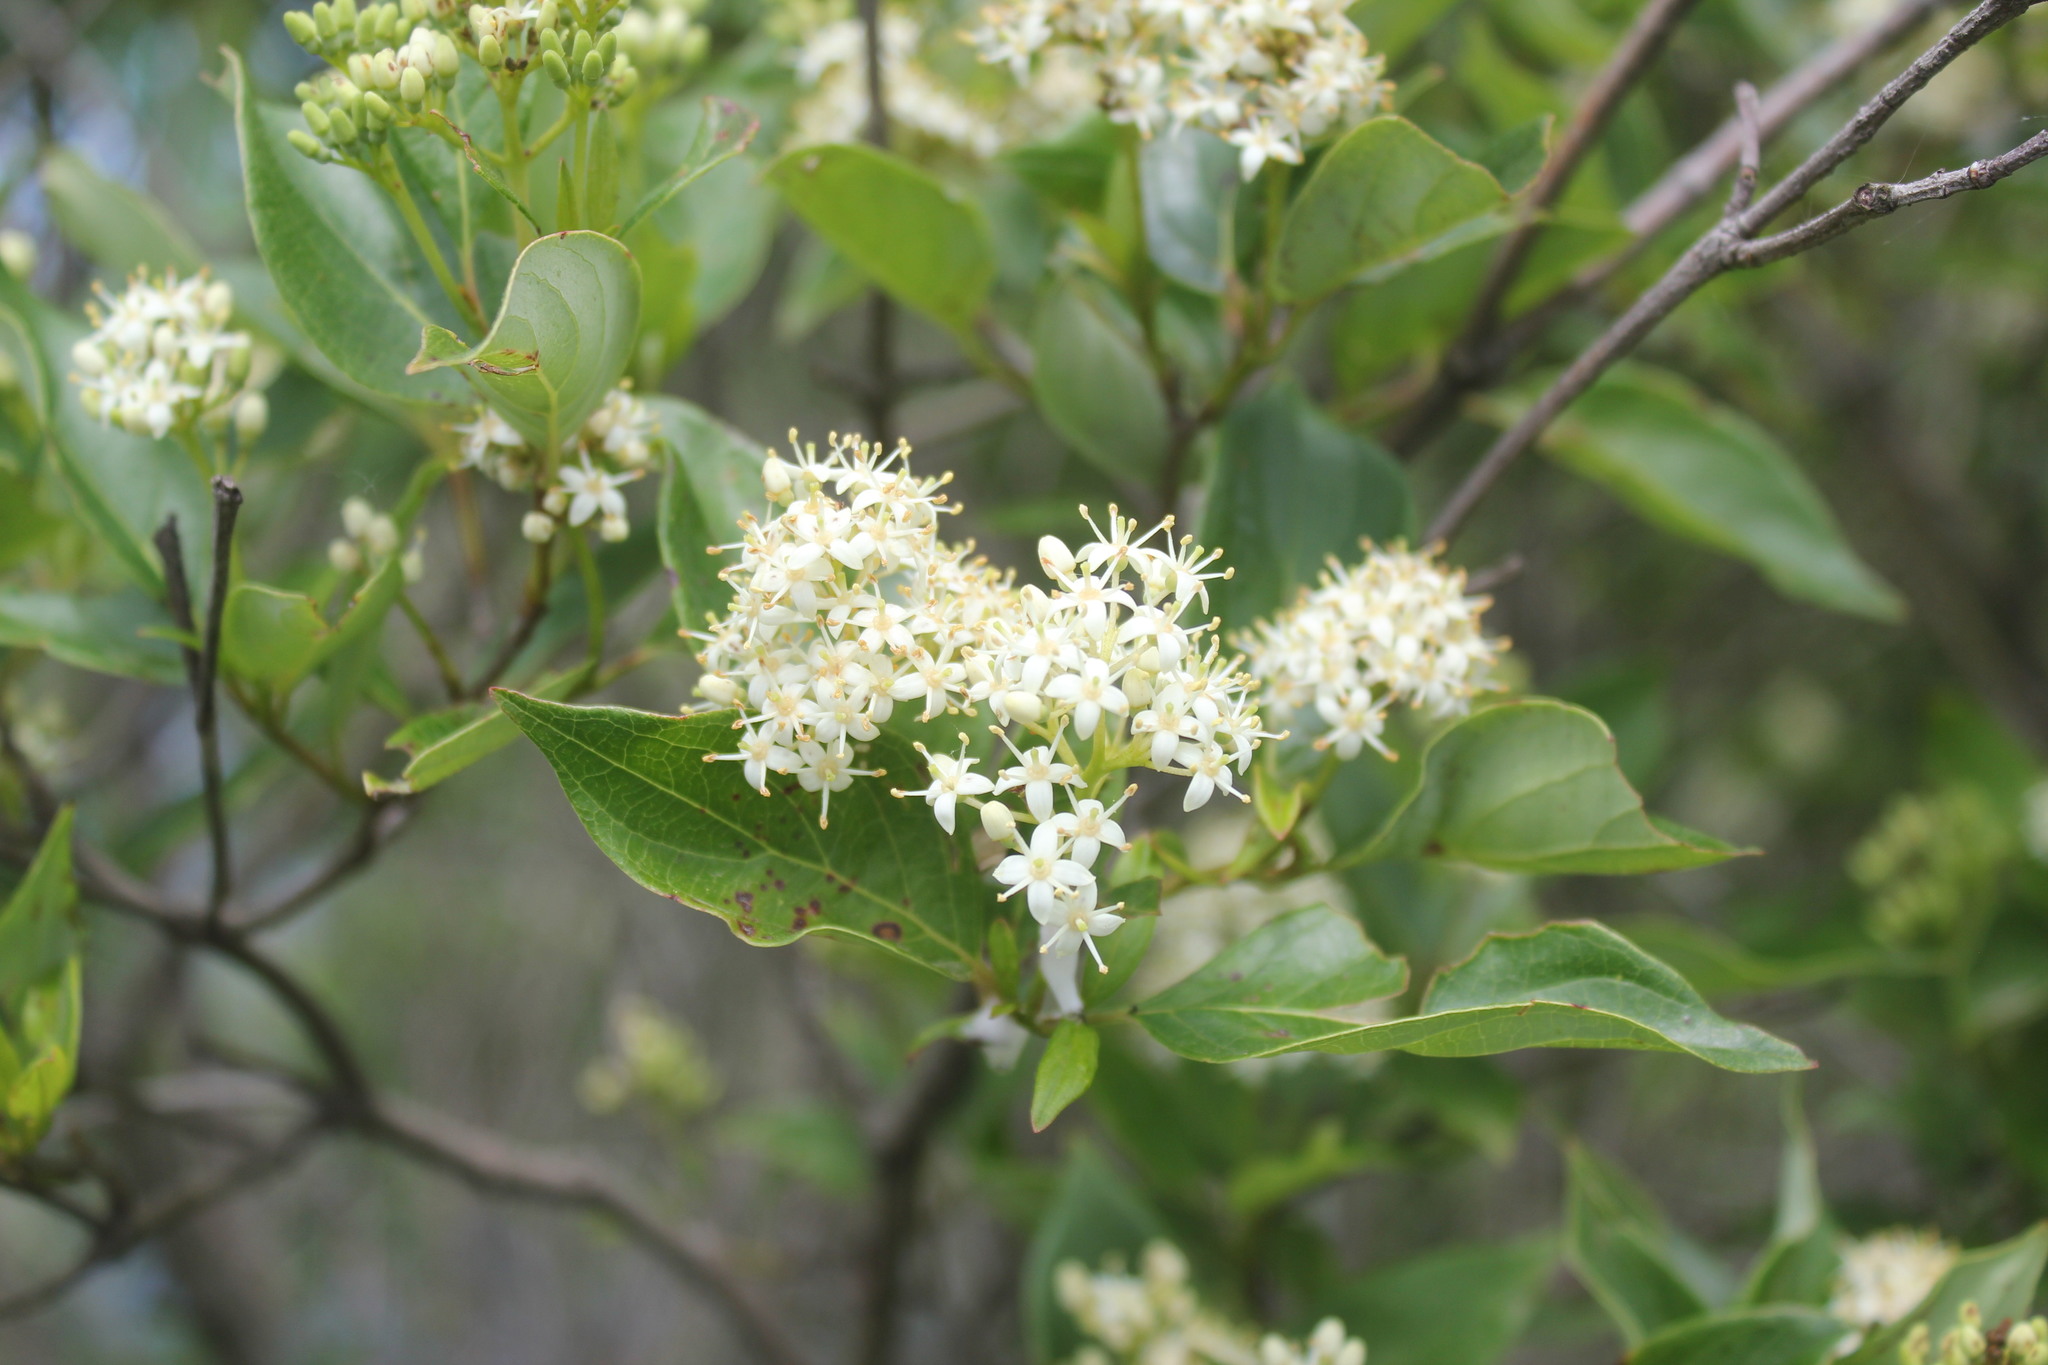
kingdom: Plantae
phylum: Tracheophyta
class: Magnoliopsida
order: Cornales
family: Cornaceae
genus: Cornus
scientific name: Cornus racemosa
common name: Panicled dogwood
